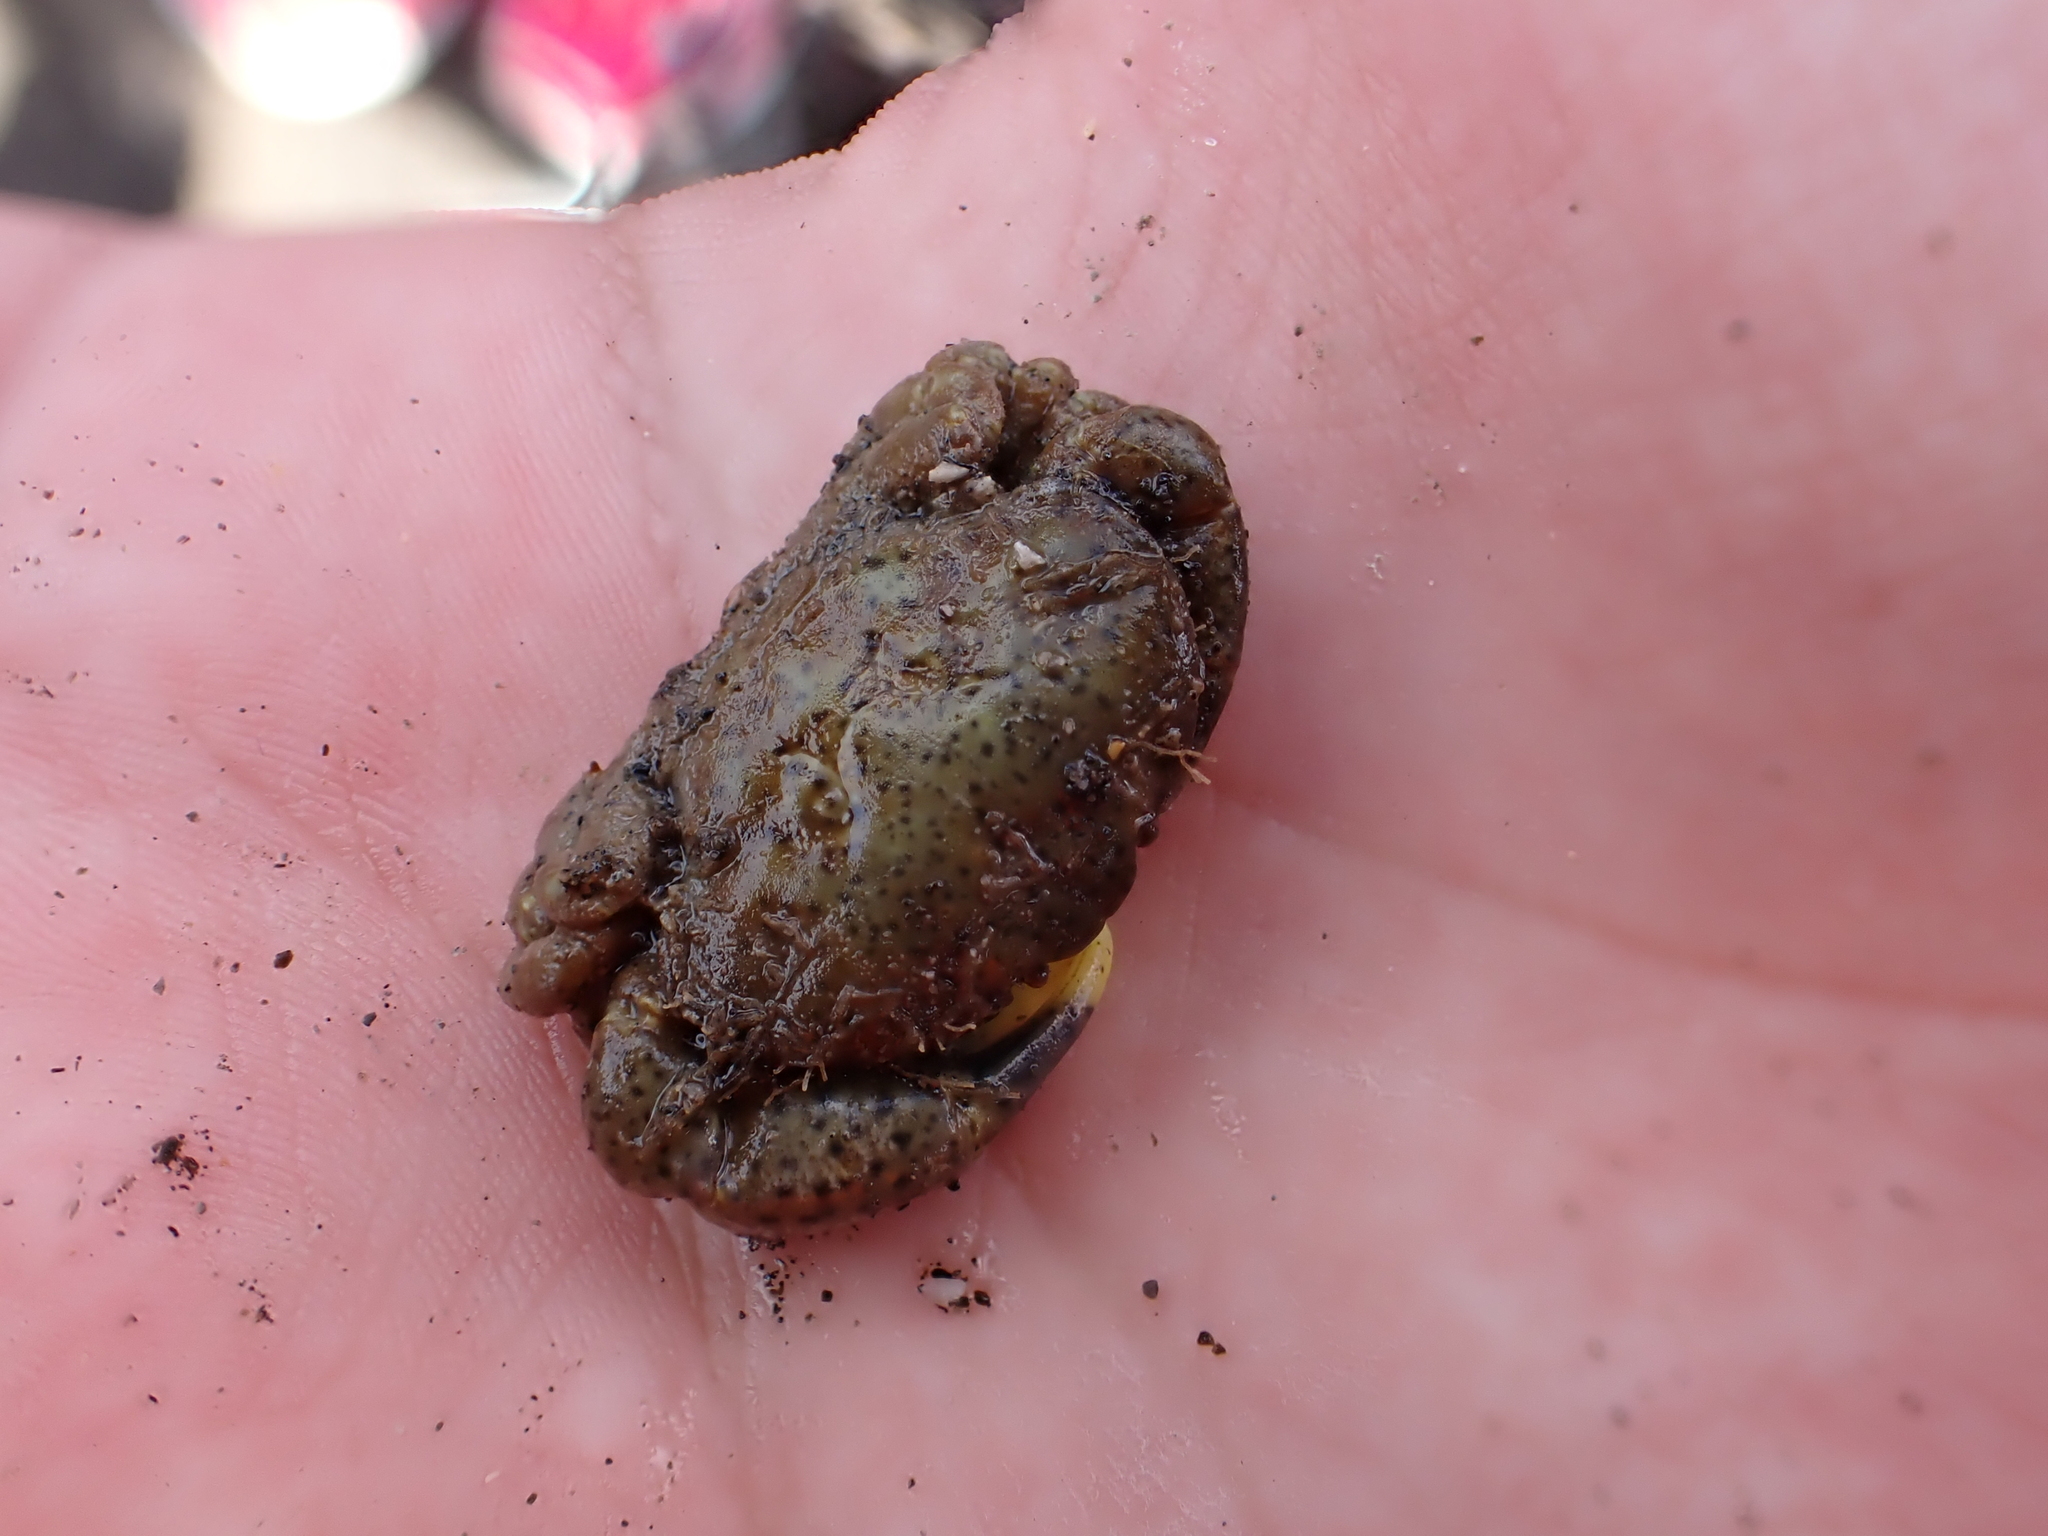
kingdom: Animalia
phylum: Arthropoda
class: Malacostraca
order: Decapoda
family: Heteroziidae
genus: Heterozius
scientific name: Heterozius rotundifrons
